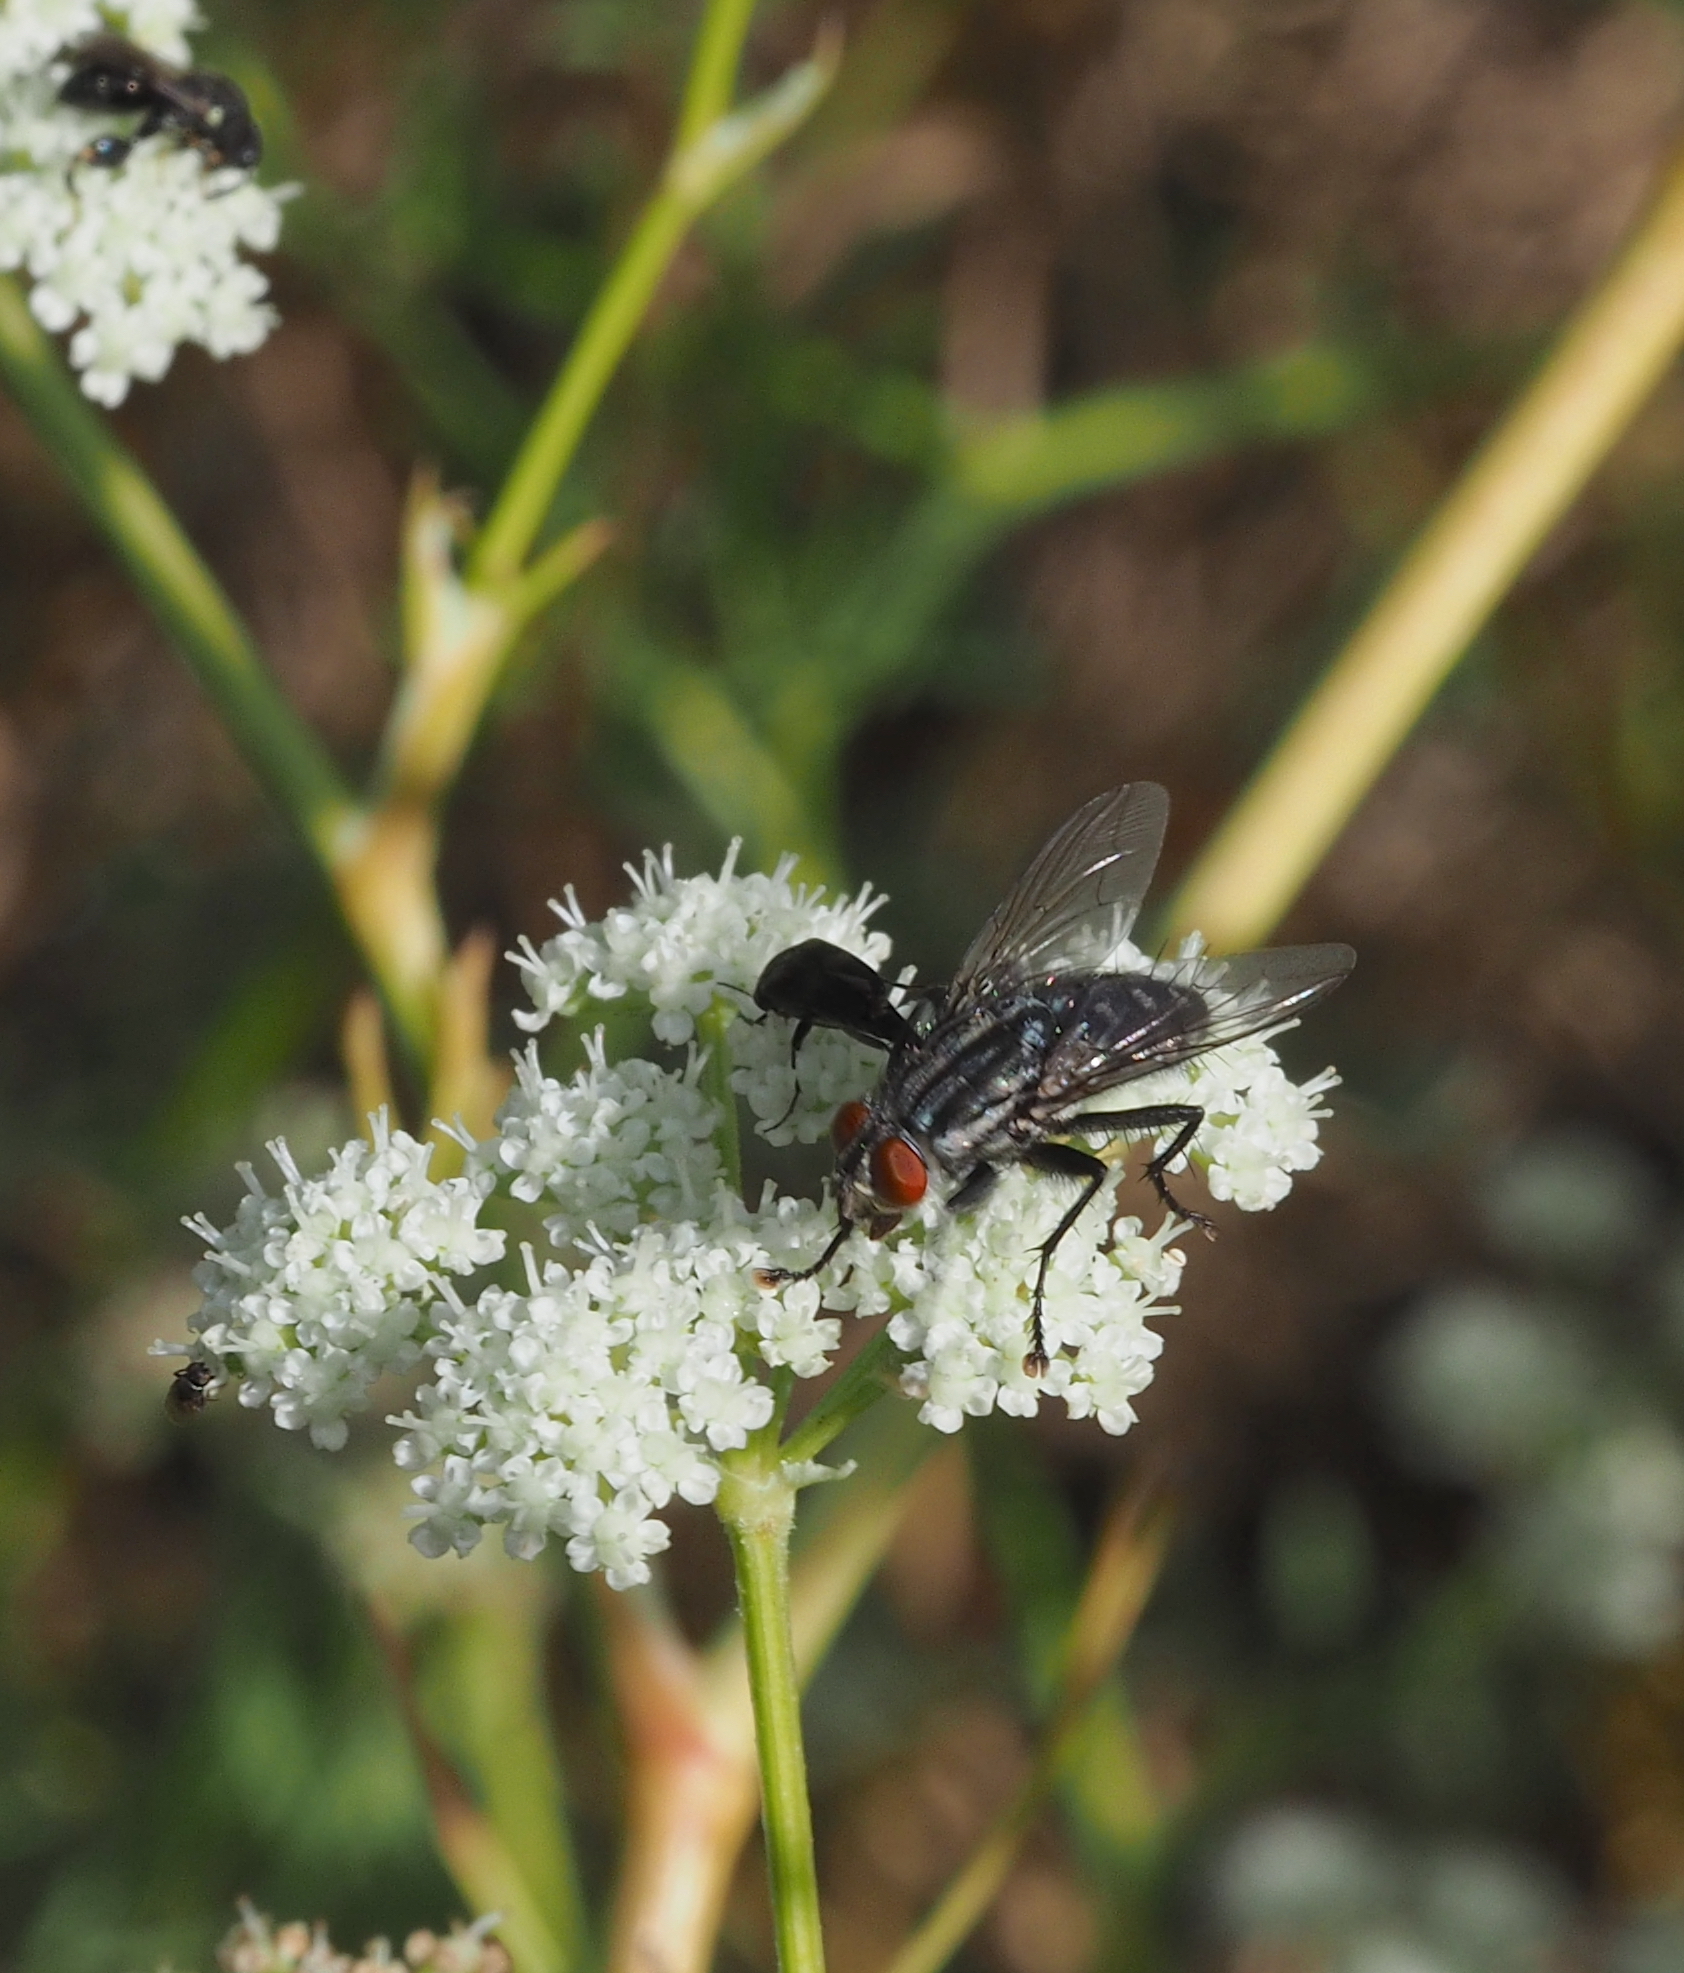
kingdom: Animalia
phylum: Arthropoda
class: Insecta
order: Diptera
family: Sarcophagidae
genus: Sarcophaga
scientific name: Sarcophaga emdeni
